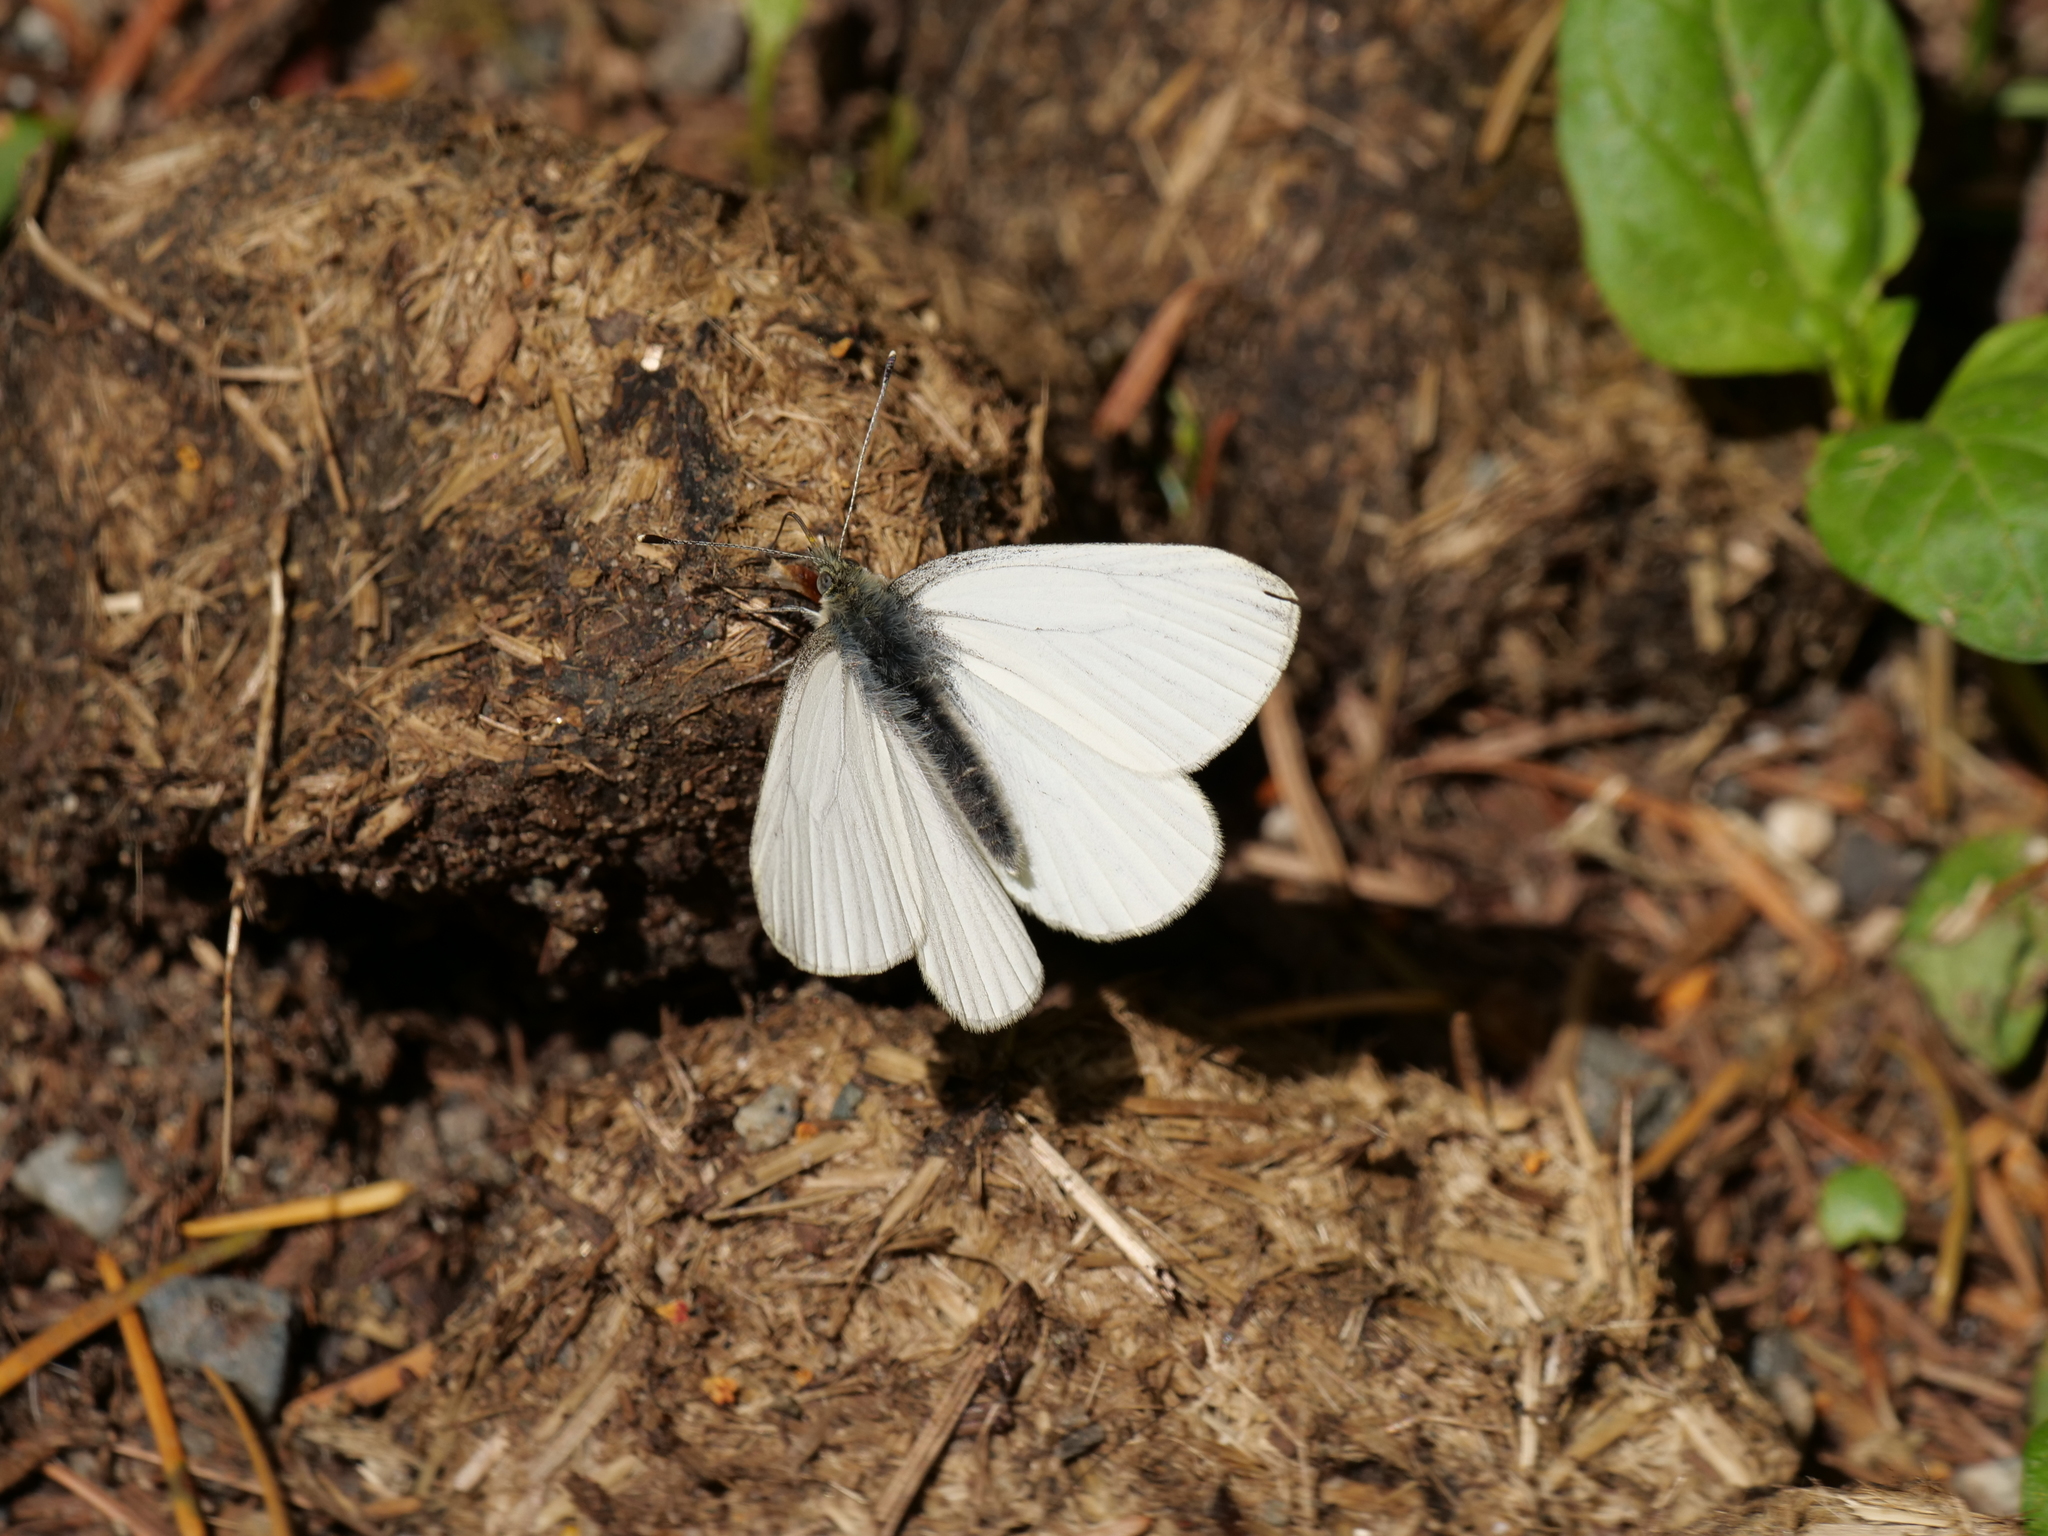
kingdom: Animalia
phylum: Arthropoda
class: Insecta
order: Lepidoptera
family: Pieridae
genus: Pieris
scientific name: Pieris marginalis
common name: Margined white
